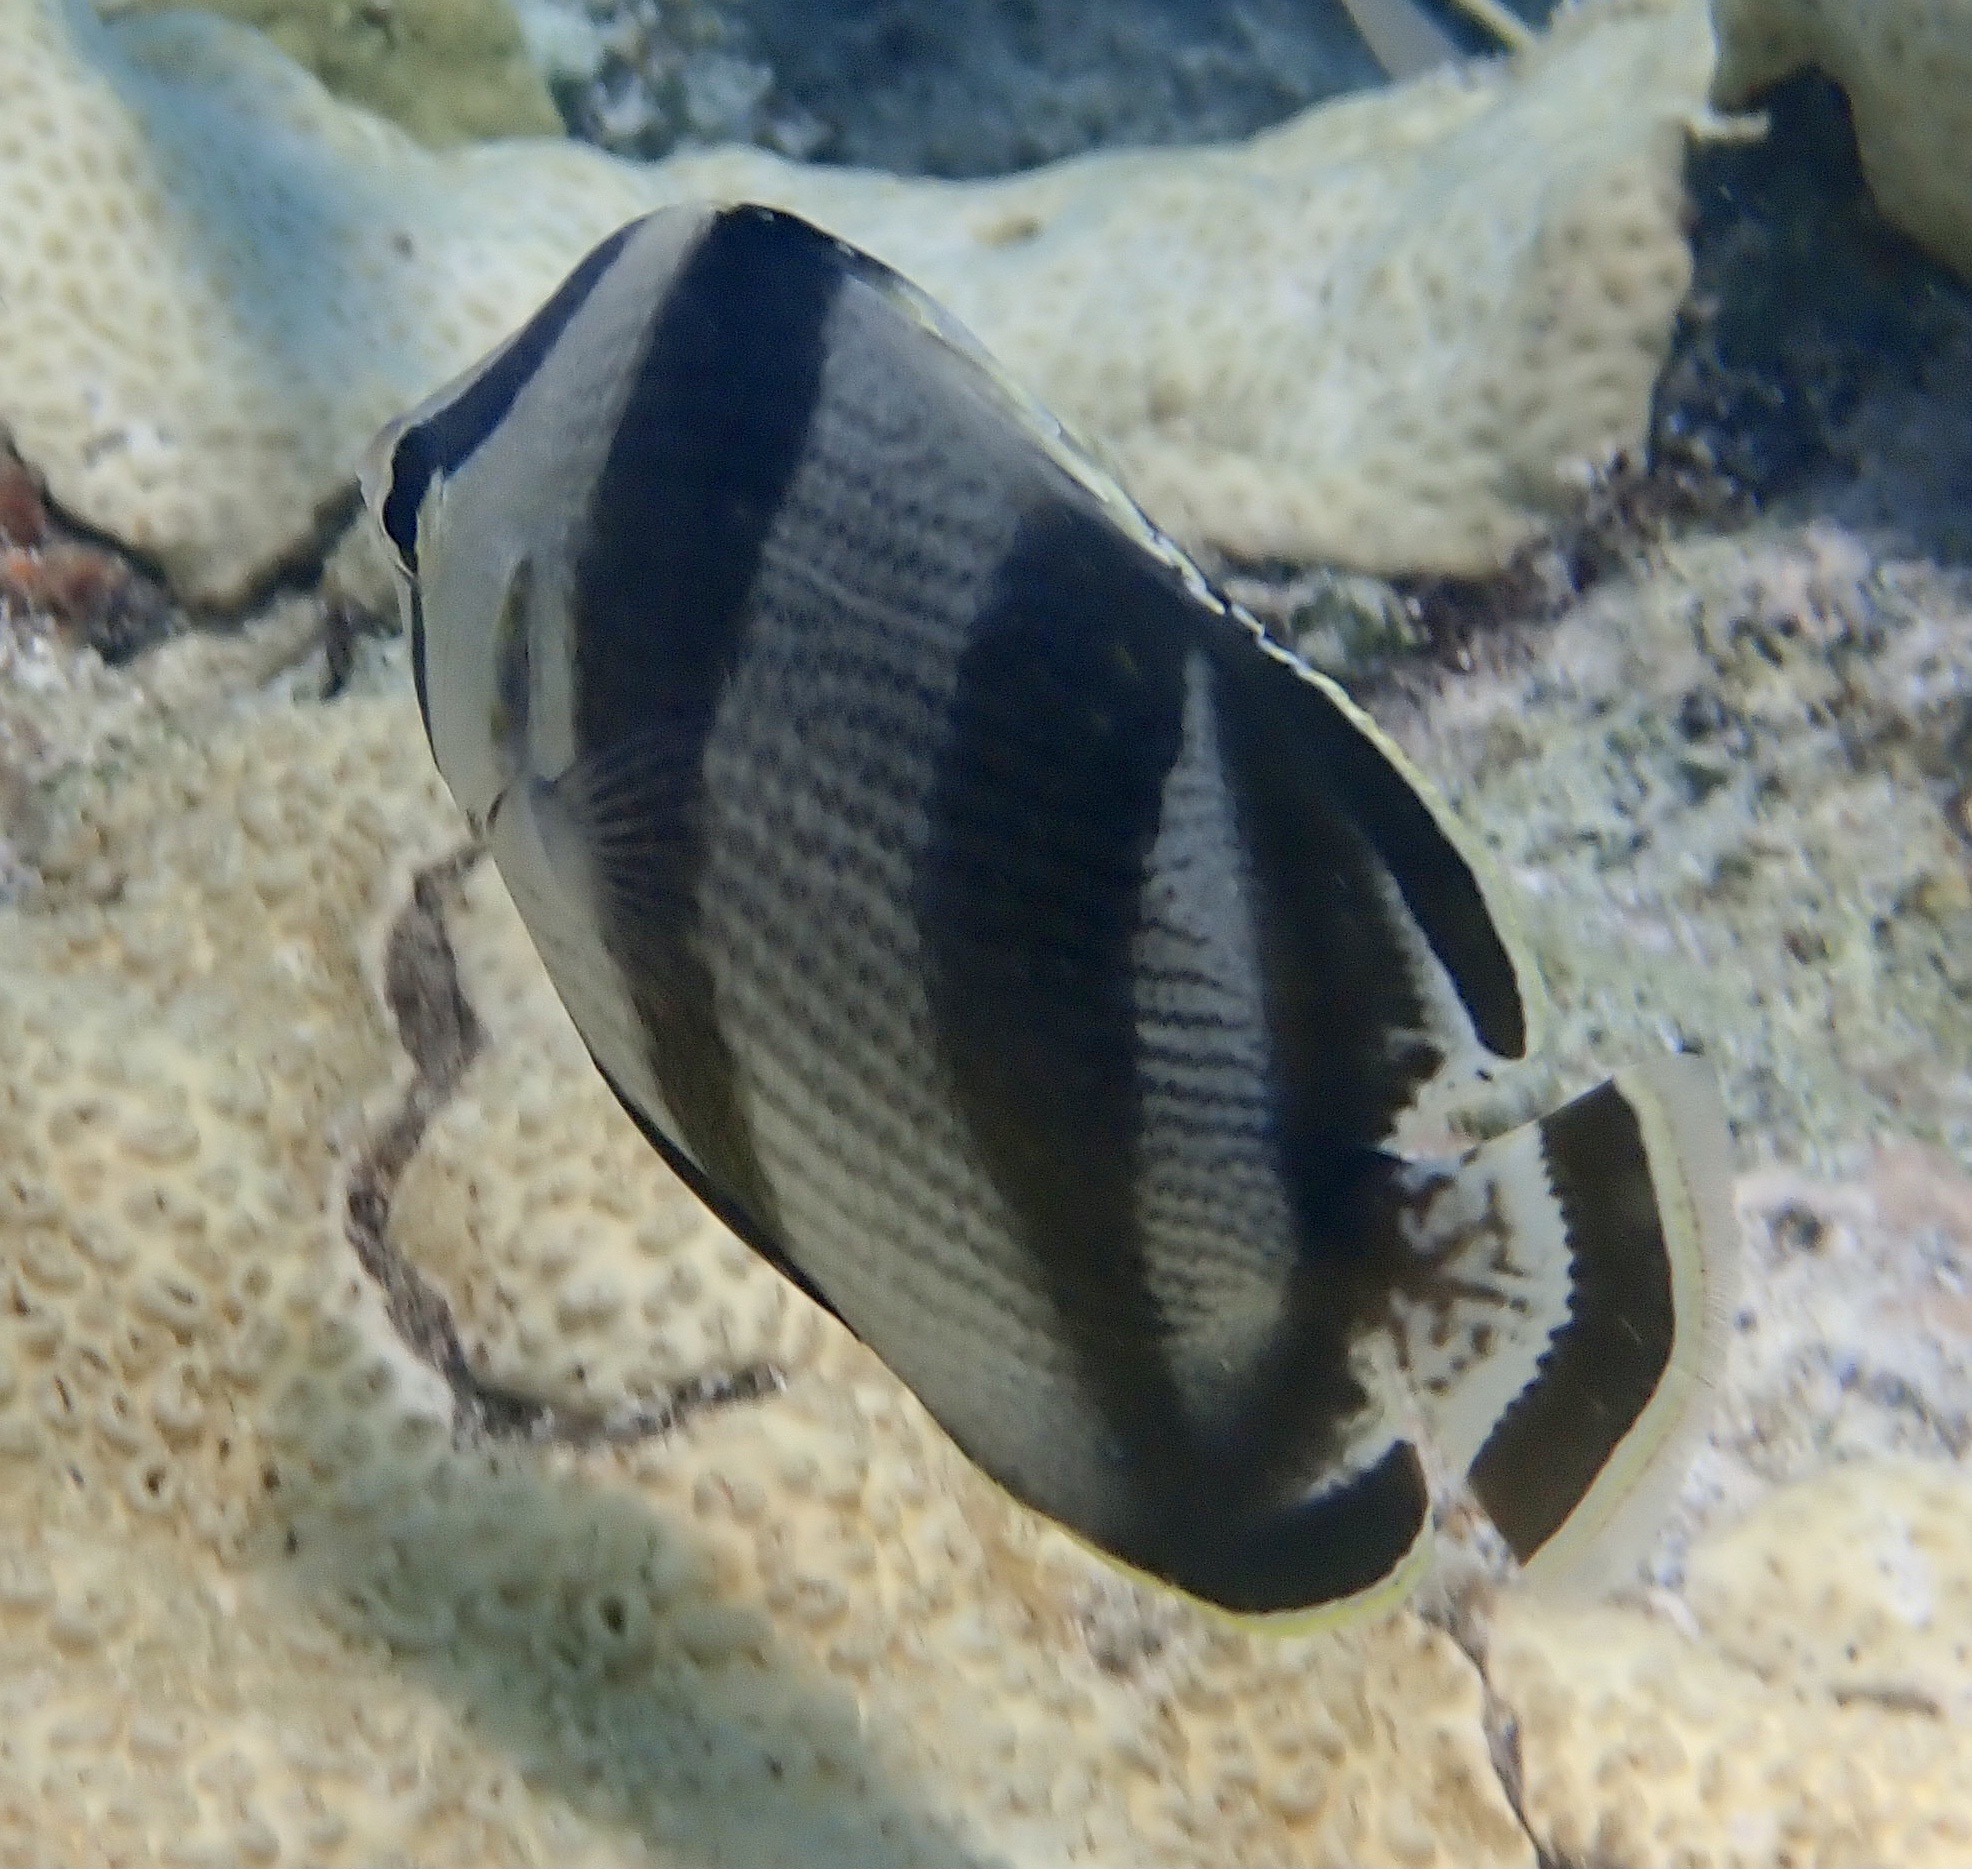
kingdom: Animalia
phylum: Chordata
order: Perciformes
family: Chaetodontidae
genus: Chaetodon
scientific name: Chaetodon striatus
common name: Banded butterflyfish
